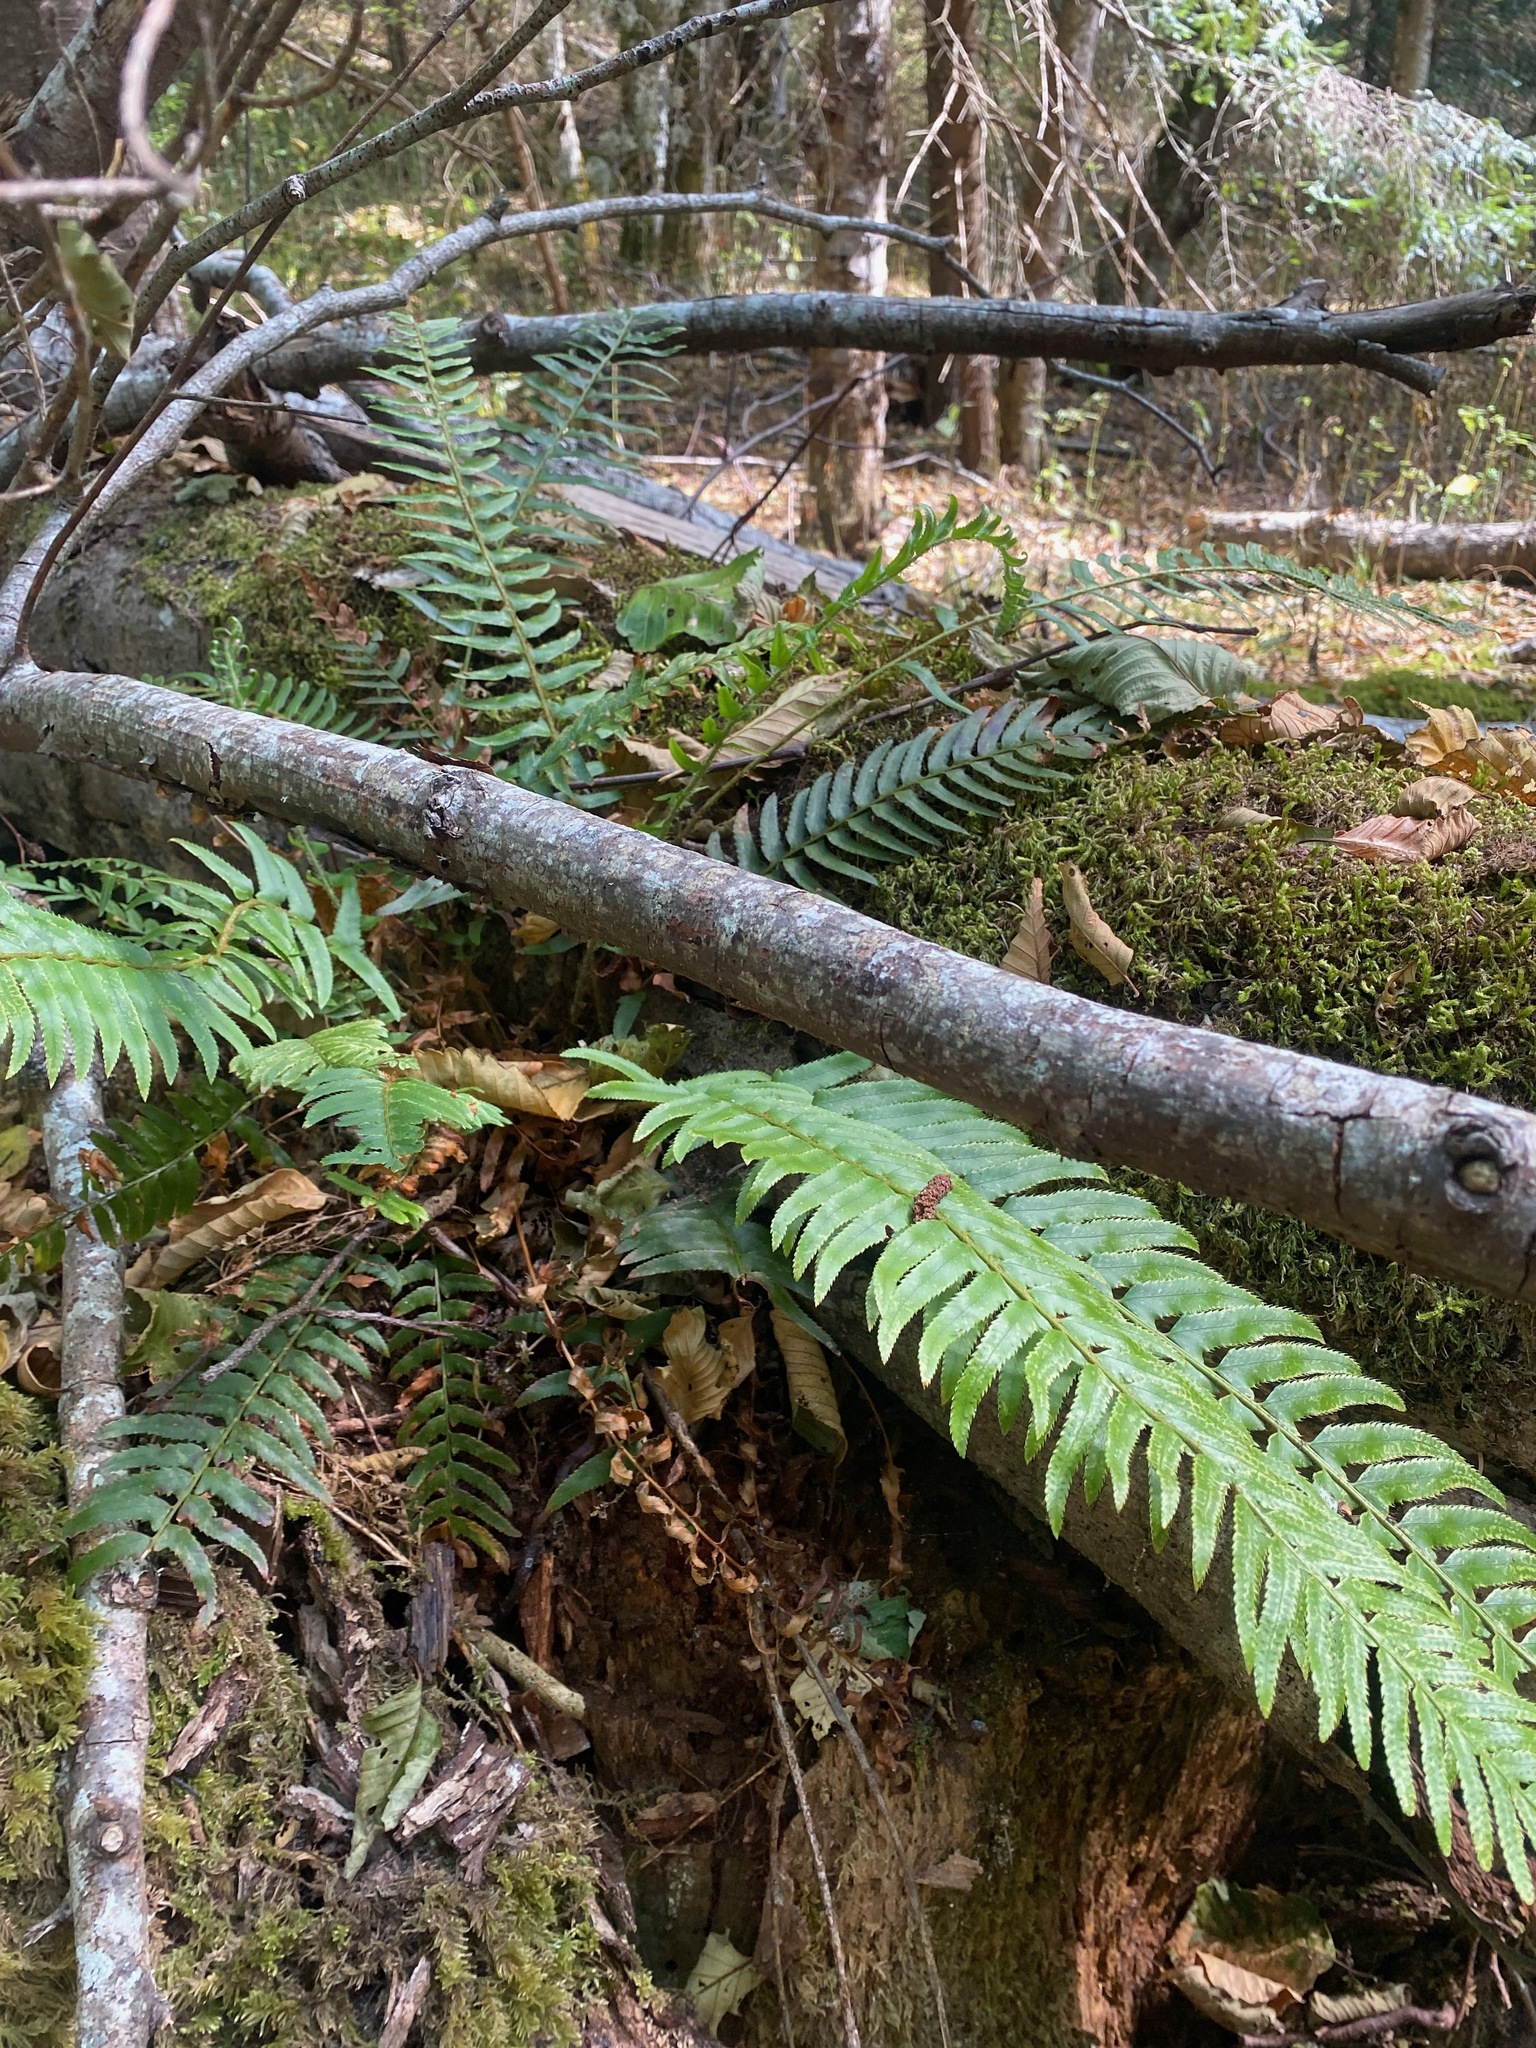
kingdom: Plantae
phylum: Tracheophyta
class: Polypodiopsida
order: Polypodiales
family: Dryopteridaceae
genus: Polystichum
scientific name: Polystichum munitum
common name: Western sword-fern
